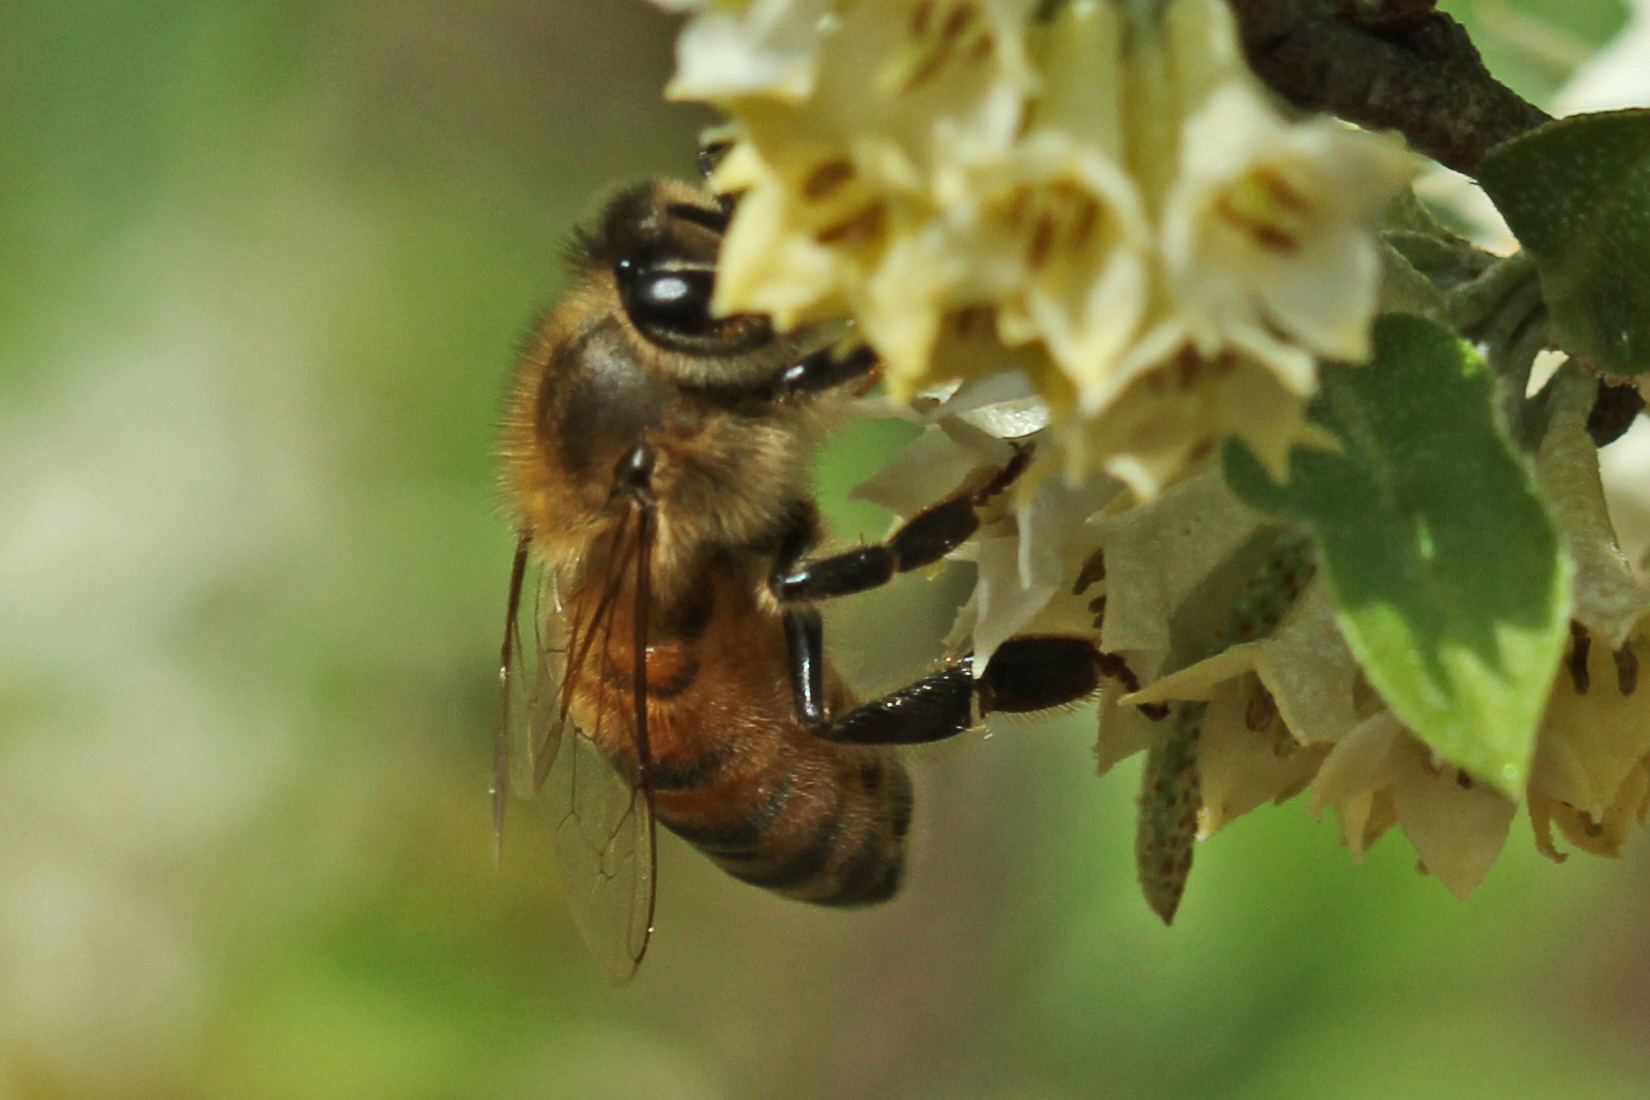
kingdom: Animalia
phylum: Arthropoda
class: Insecta
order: Hymenoptera
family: Apidae
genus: Apis
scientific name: Apis mellifera
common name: Honey bee
